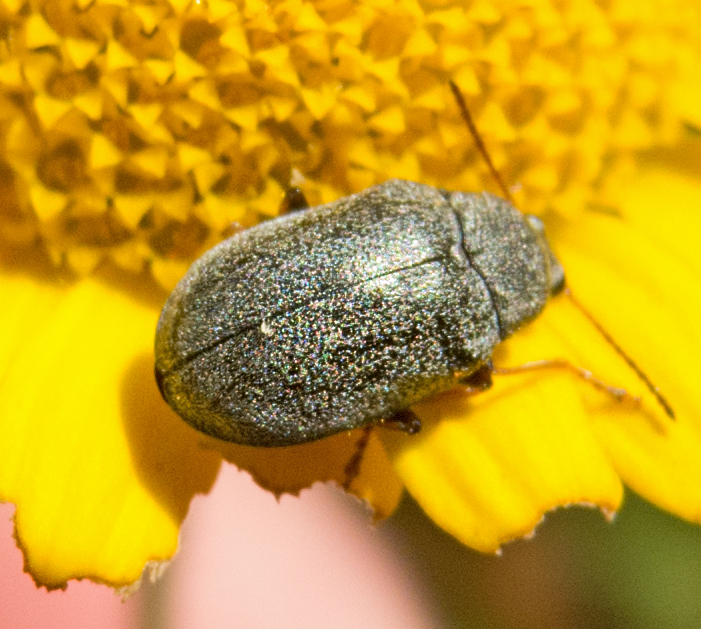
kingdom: Animalia
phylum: Arthropoda
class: Insecta
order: Coleoptera
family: Mycteridae
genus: Mycterus
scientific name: Mycterus tibialis
